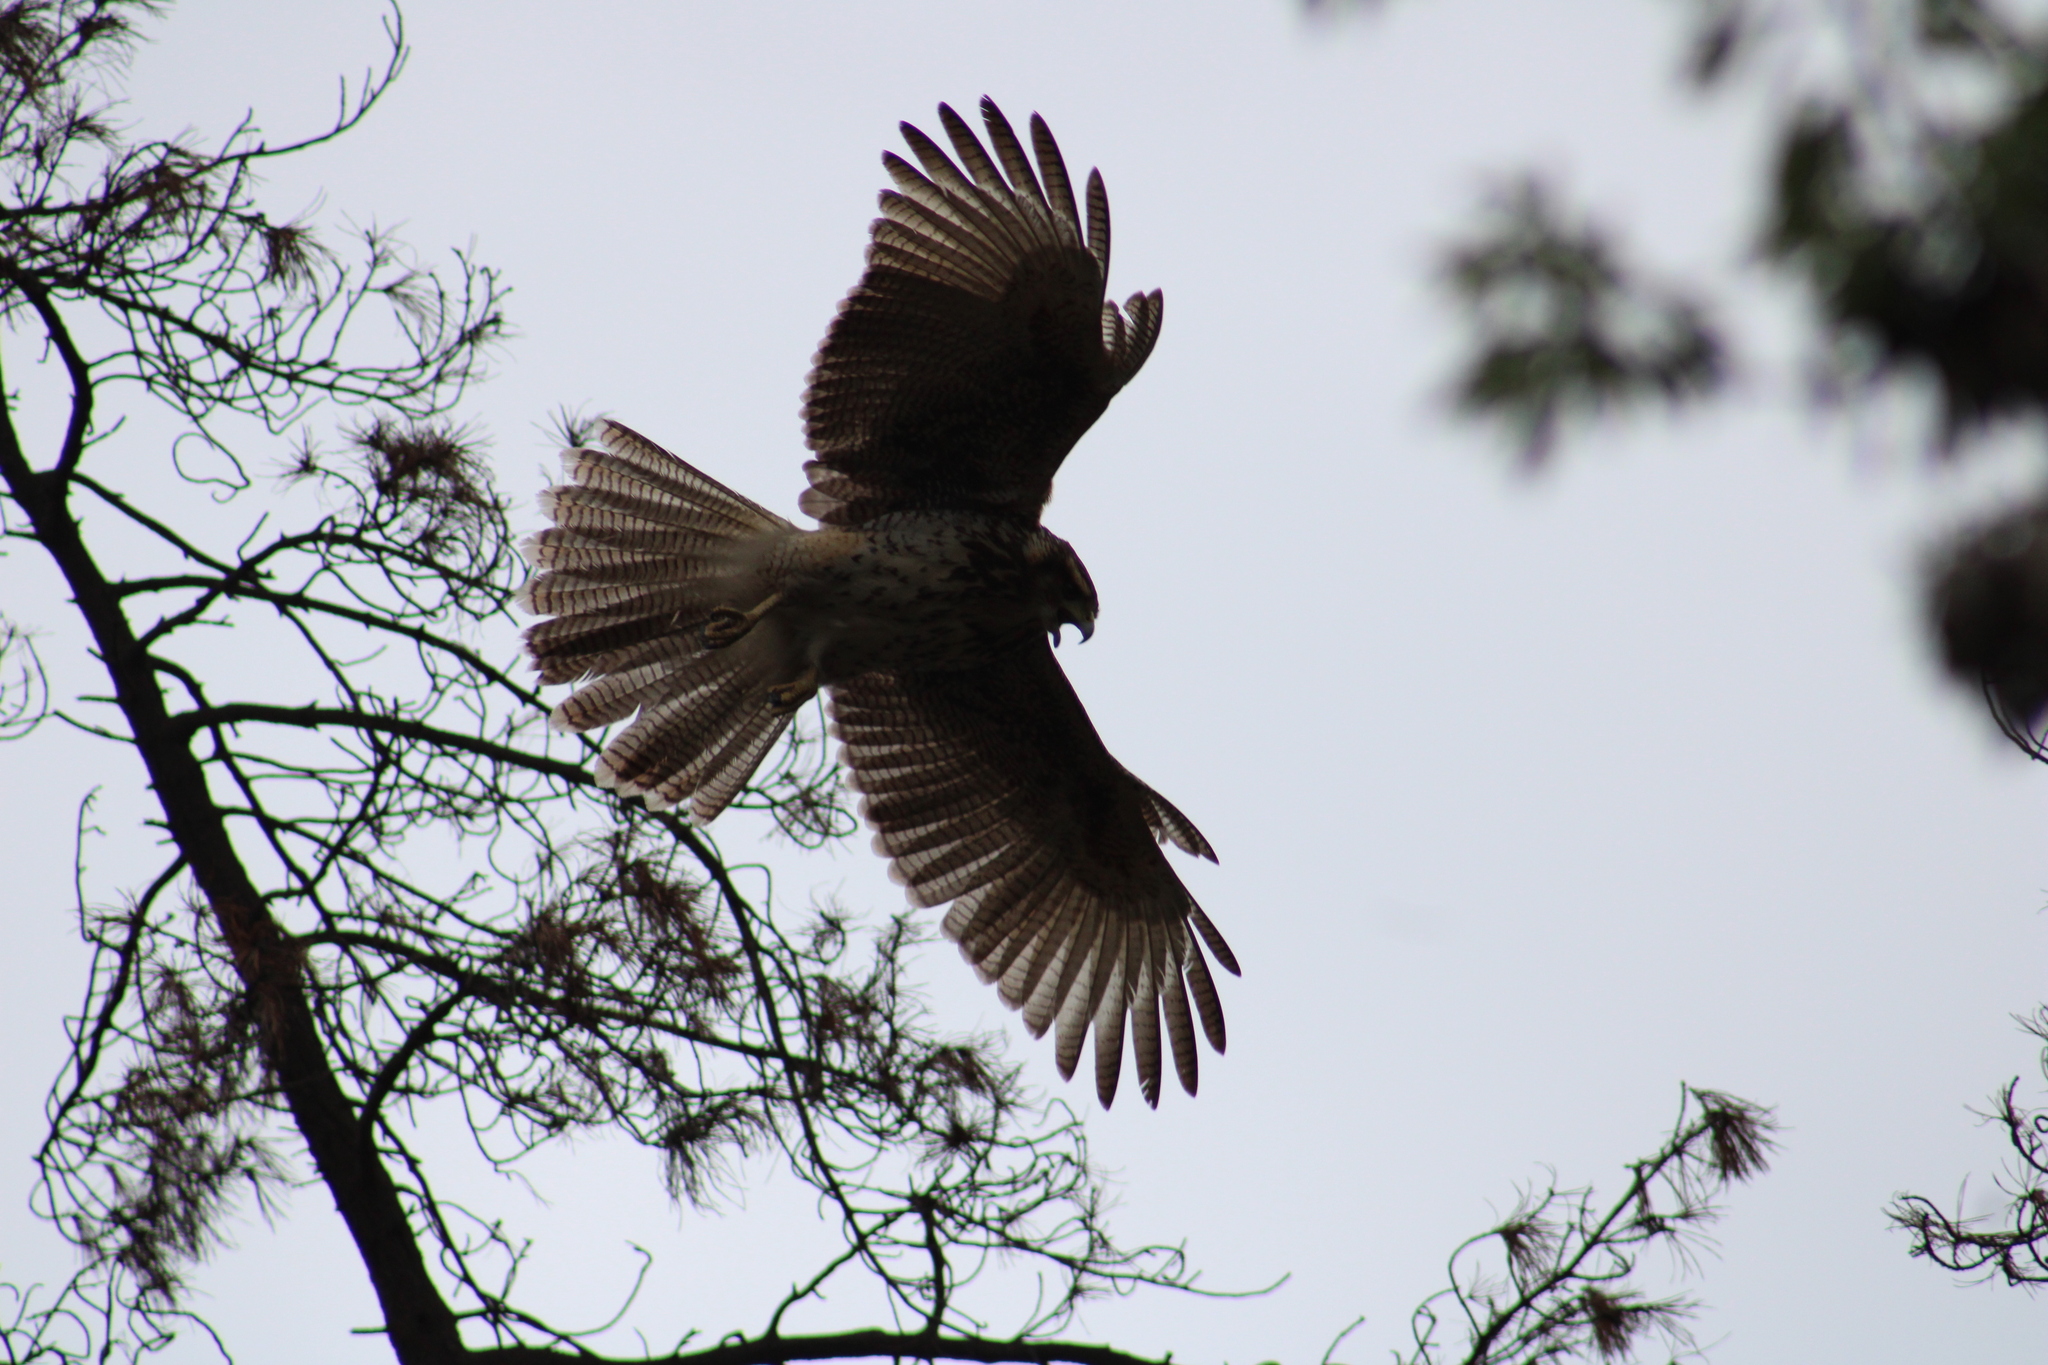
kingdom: Animalia
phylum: Chordata
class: Aves
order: Accipitriformes
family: Accipitridae
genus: Parabuteo
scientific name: Parabuteo unicinctus
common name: Harris's hawk
